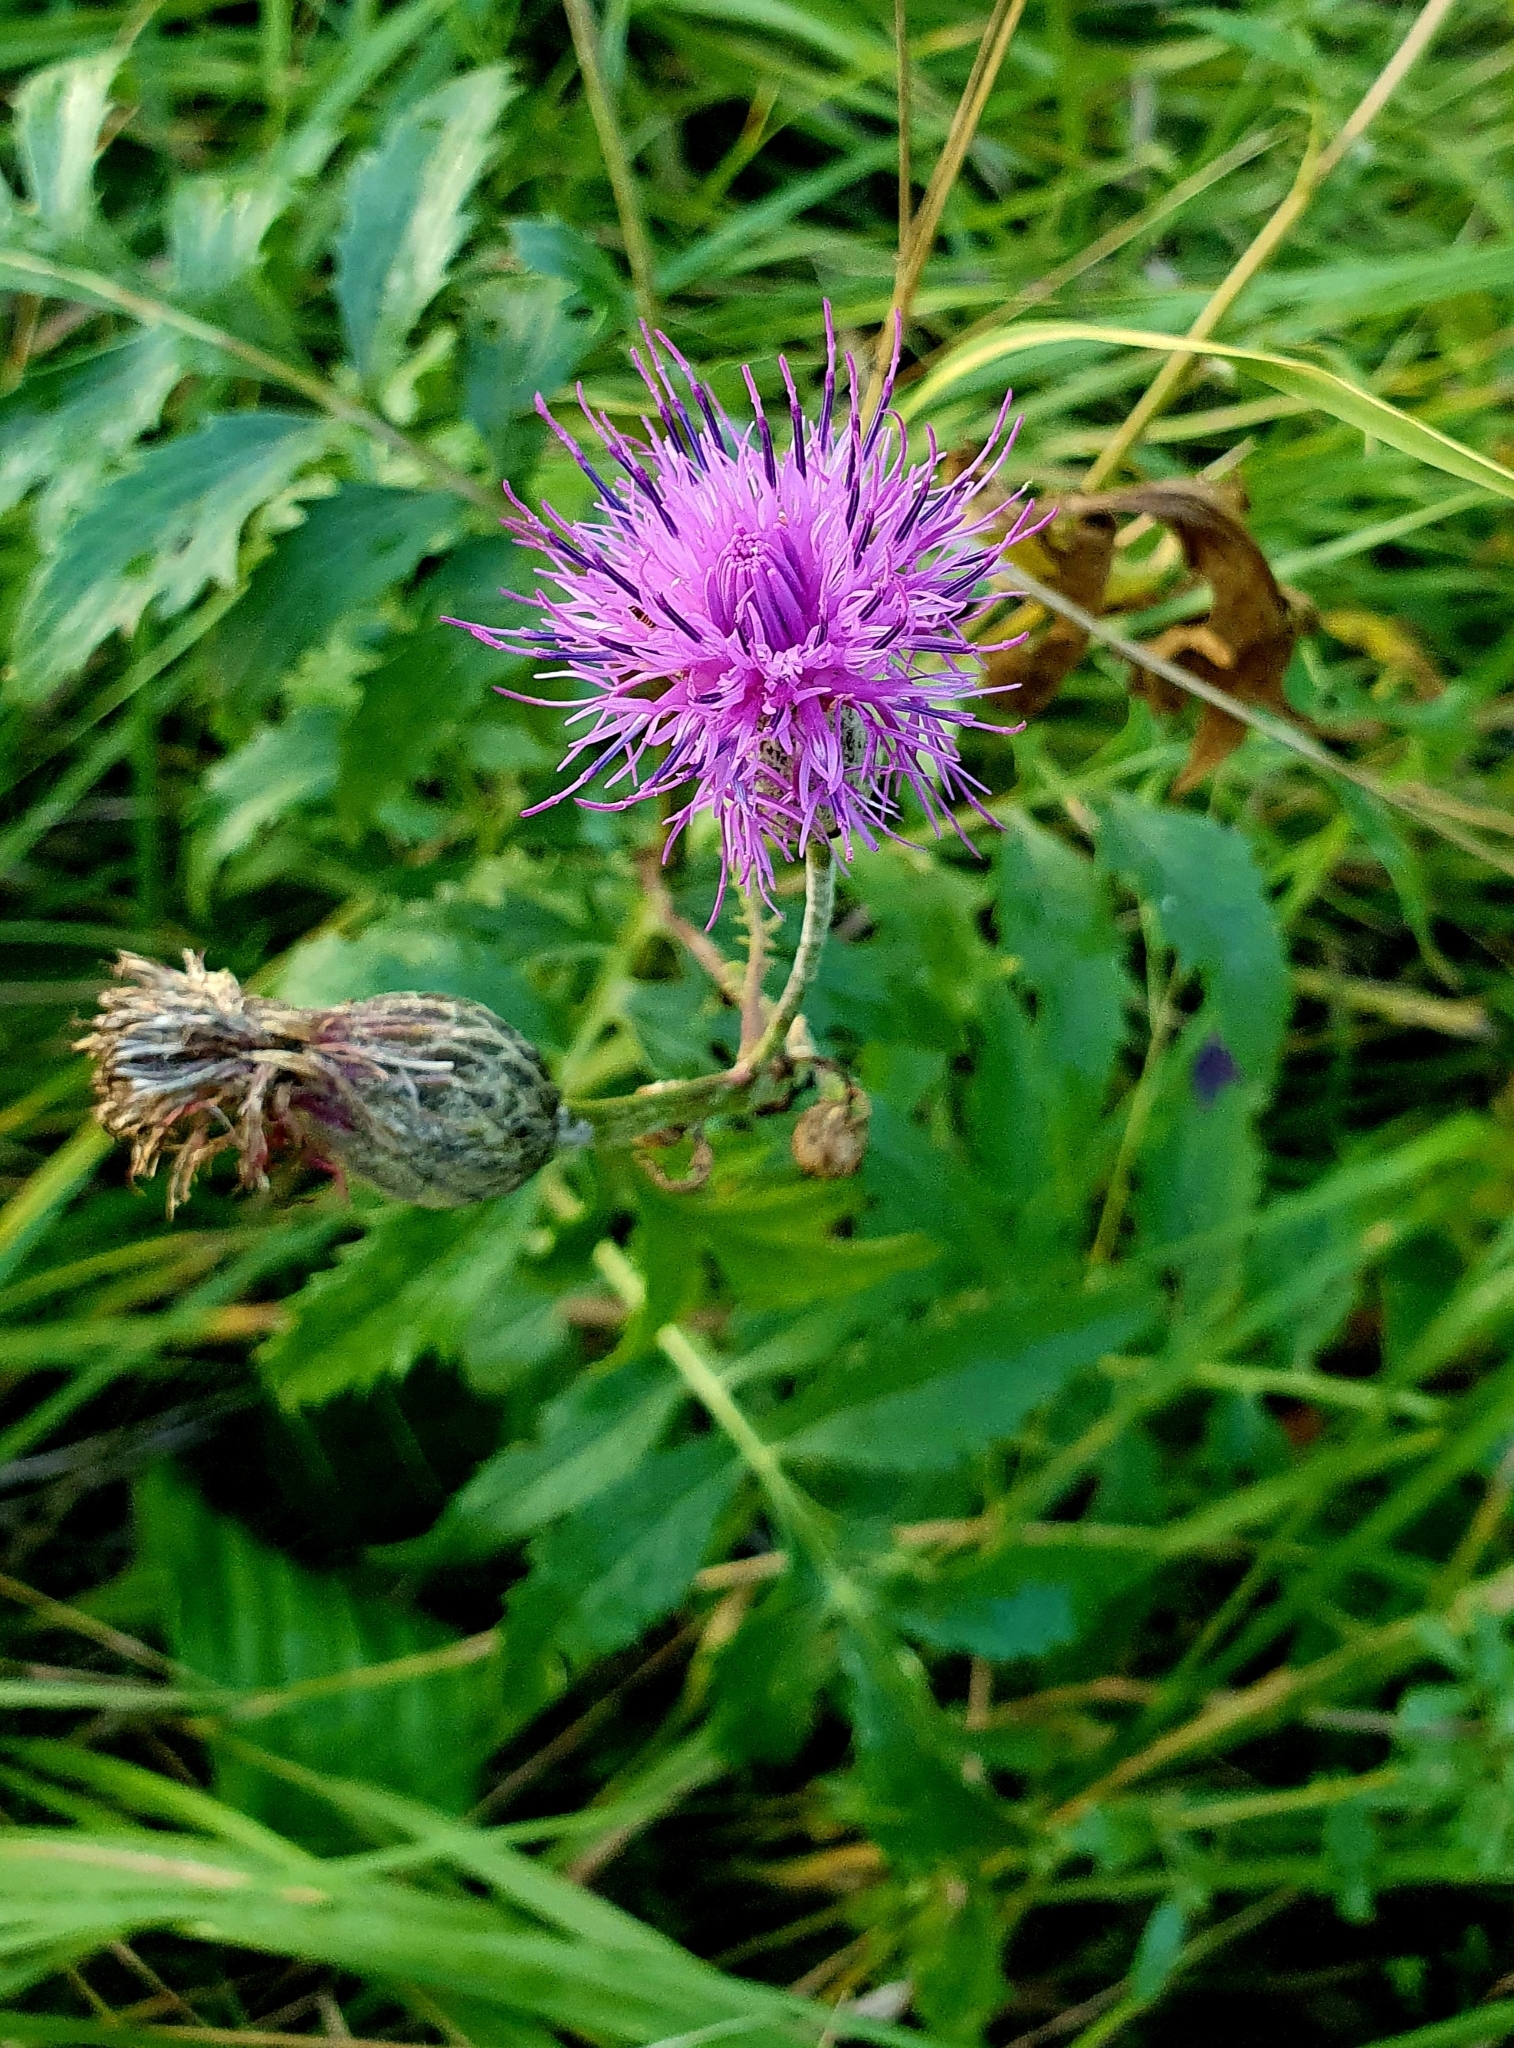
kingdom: Plantae
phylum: Tracheophyta
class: Magnoliopsida
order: Asterales
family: Asteraceae
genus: Serratula
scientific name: Serratula coronata
